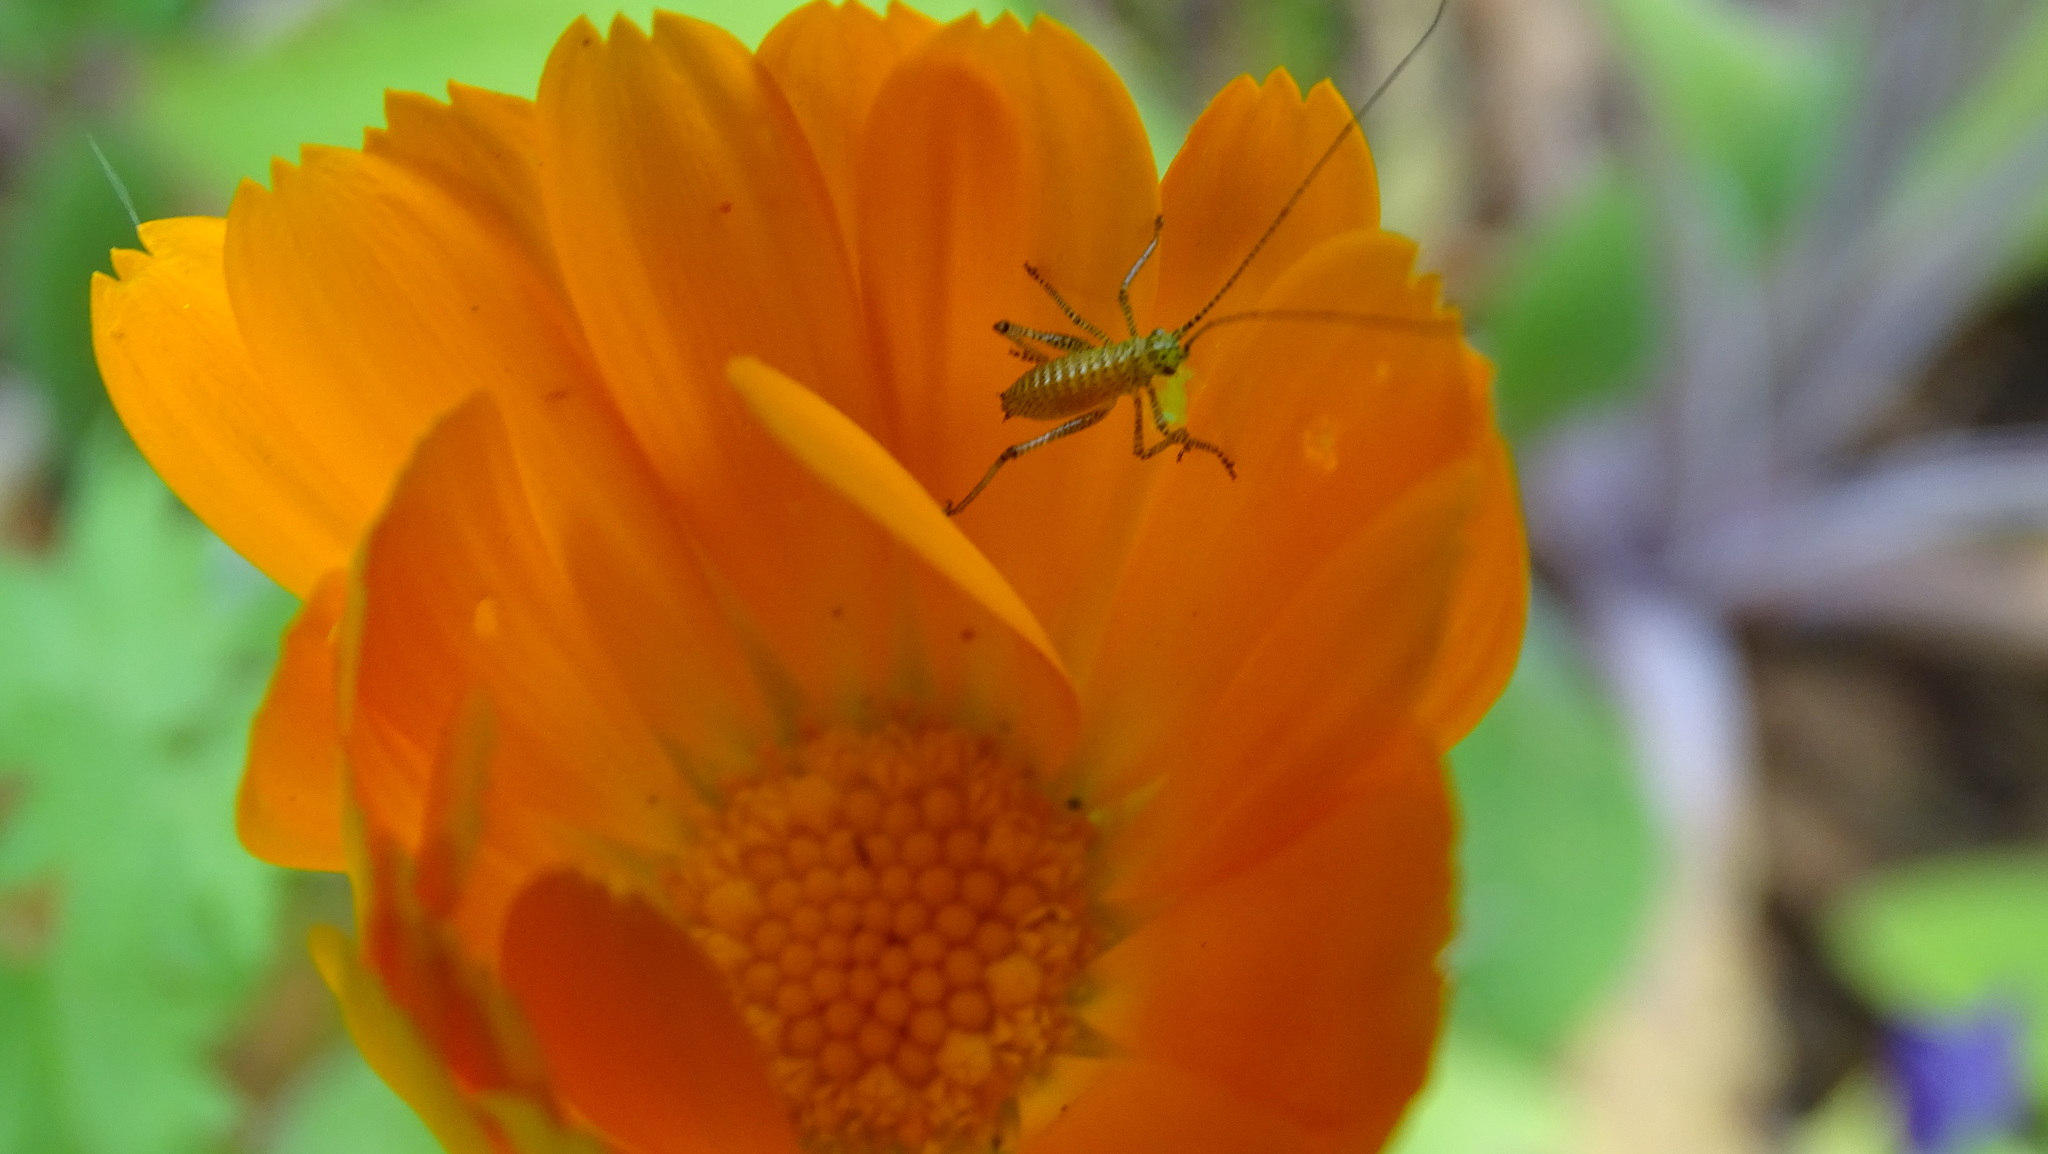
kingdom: Animalia
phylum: Arthropoda
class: Insecta
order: Orthoptera
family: Tettigoniidae
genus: Leptophyes
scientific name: Leptophyes punctatissima
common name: Speckled bush-cricket
